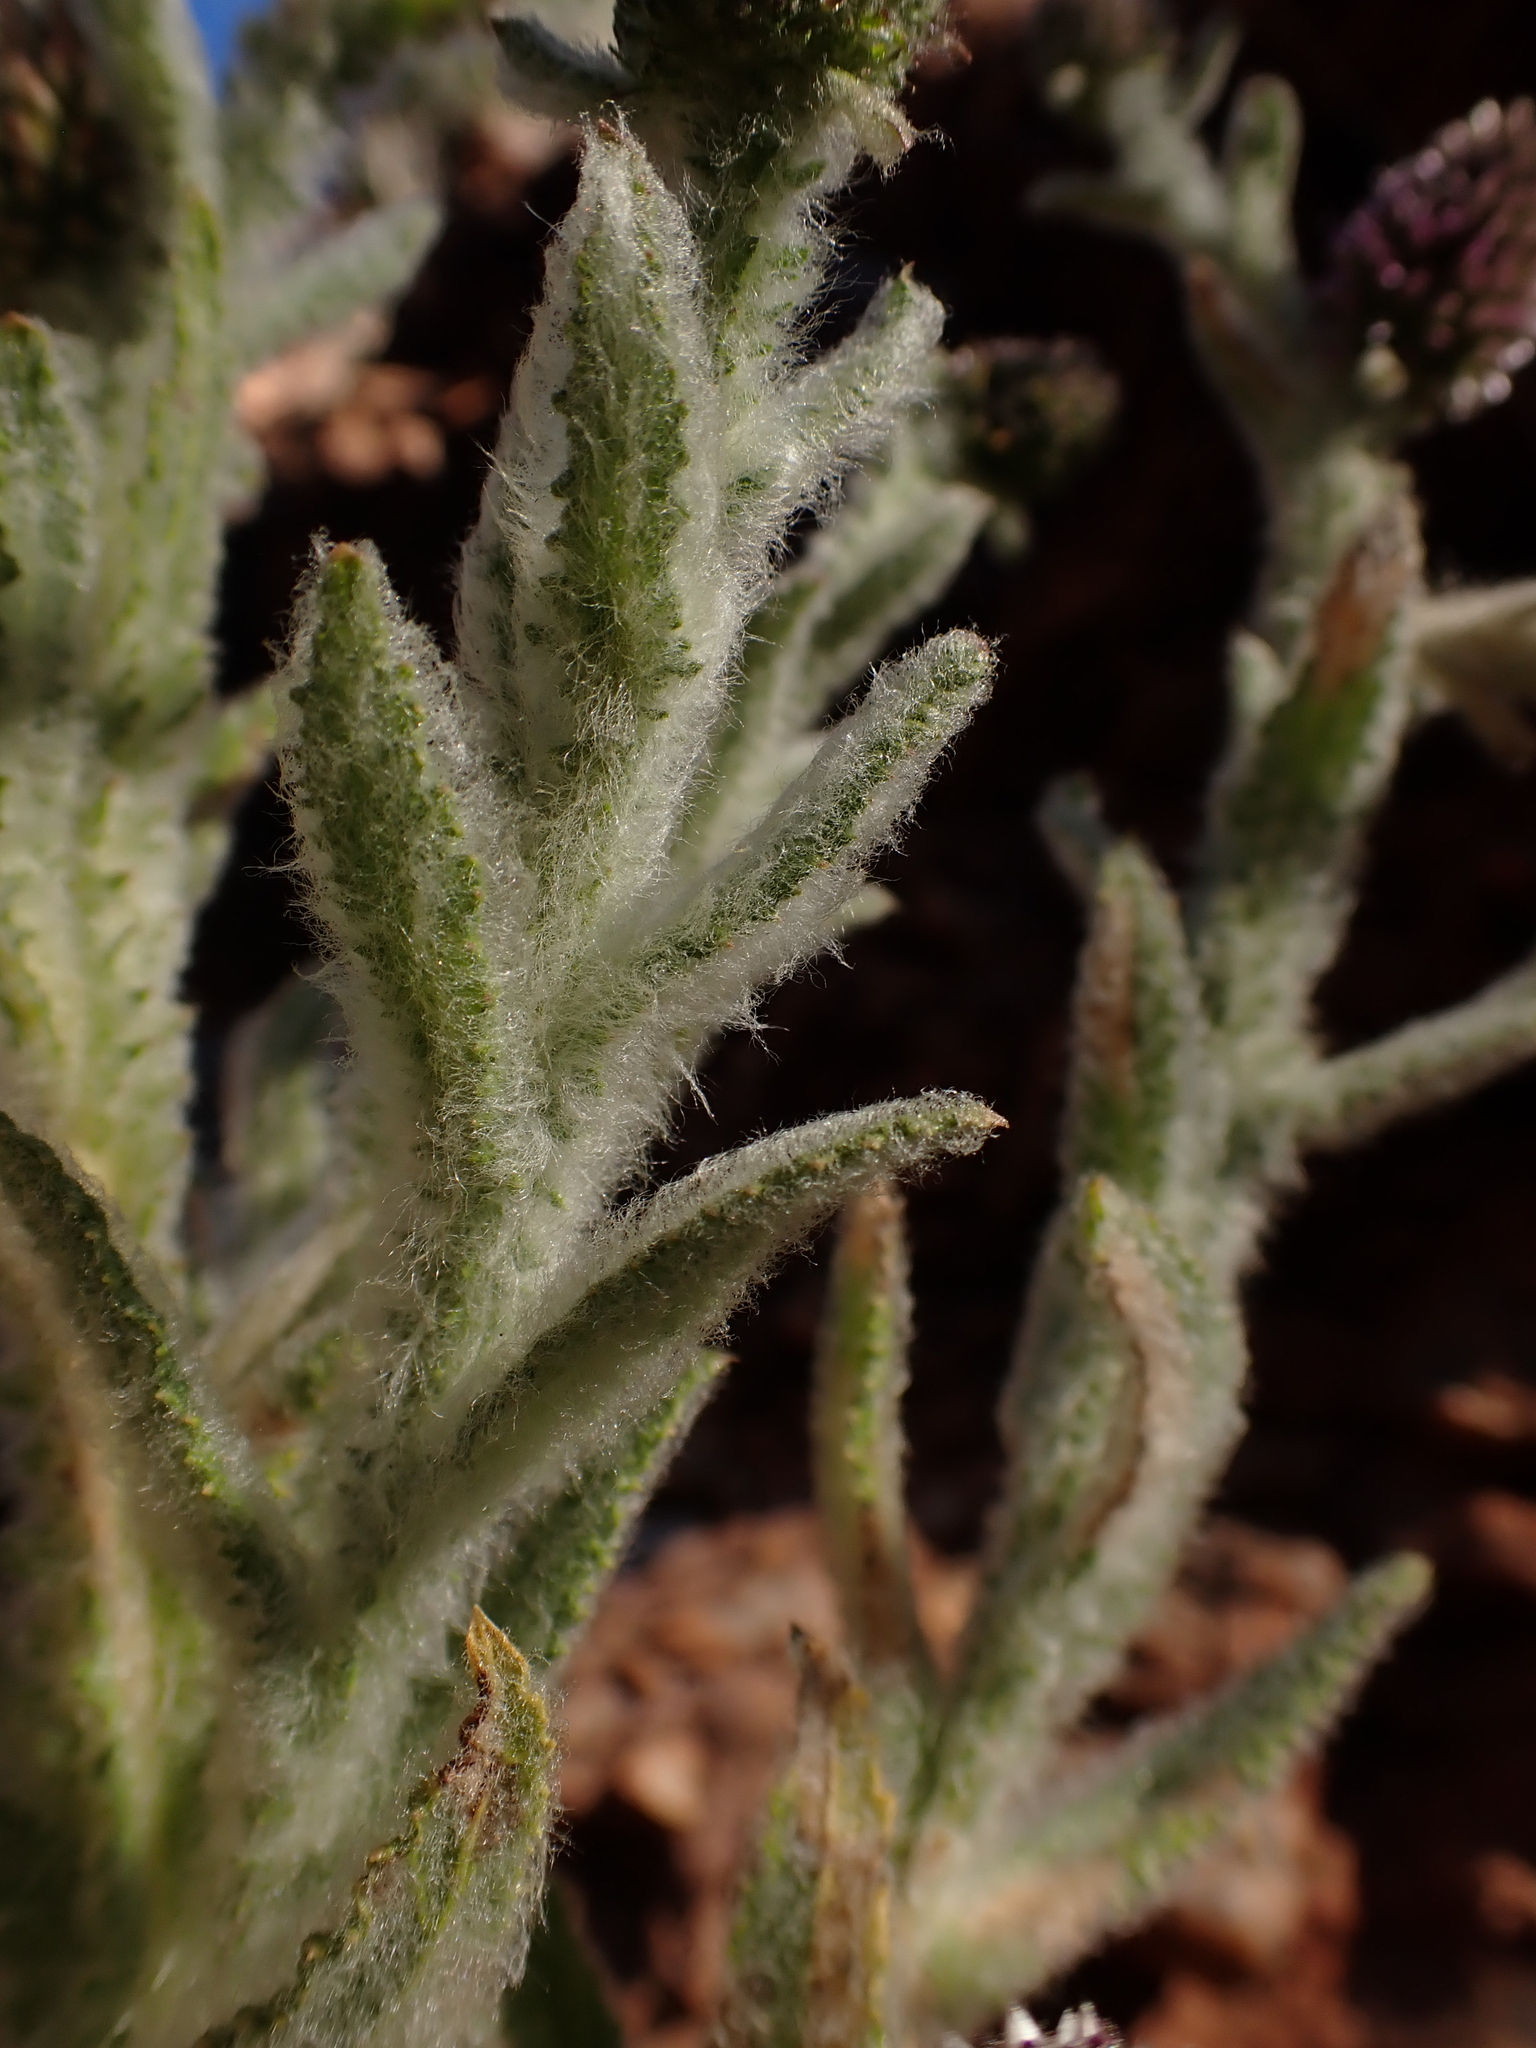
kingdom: Plantae
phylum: Tracheophyta
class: Magnoliopsida
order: Asterales
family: Asteraceae
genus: Pterocaulon
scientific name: Pterocaulon serrulatum
